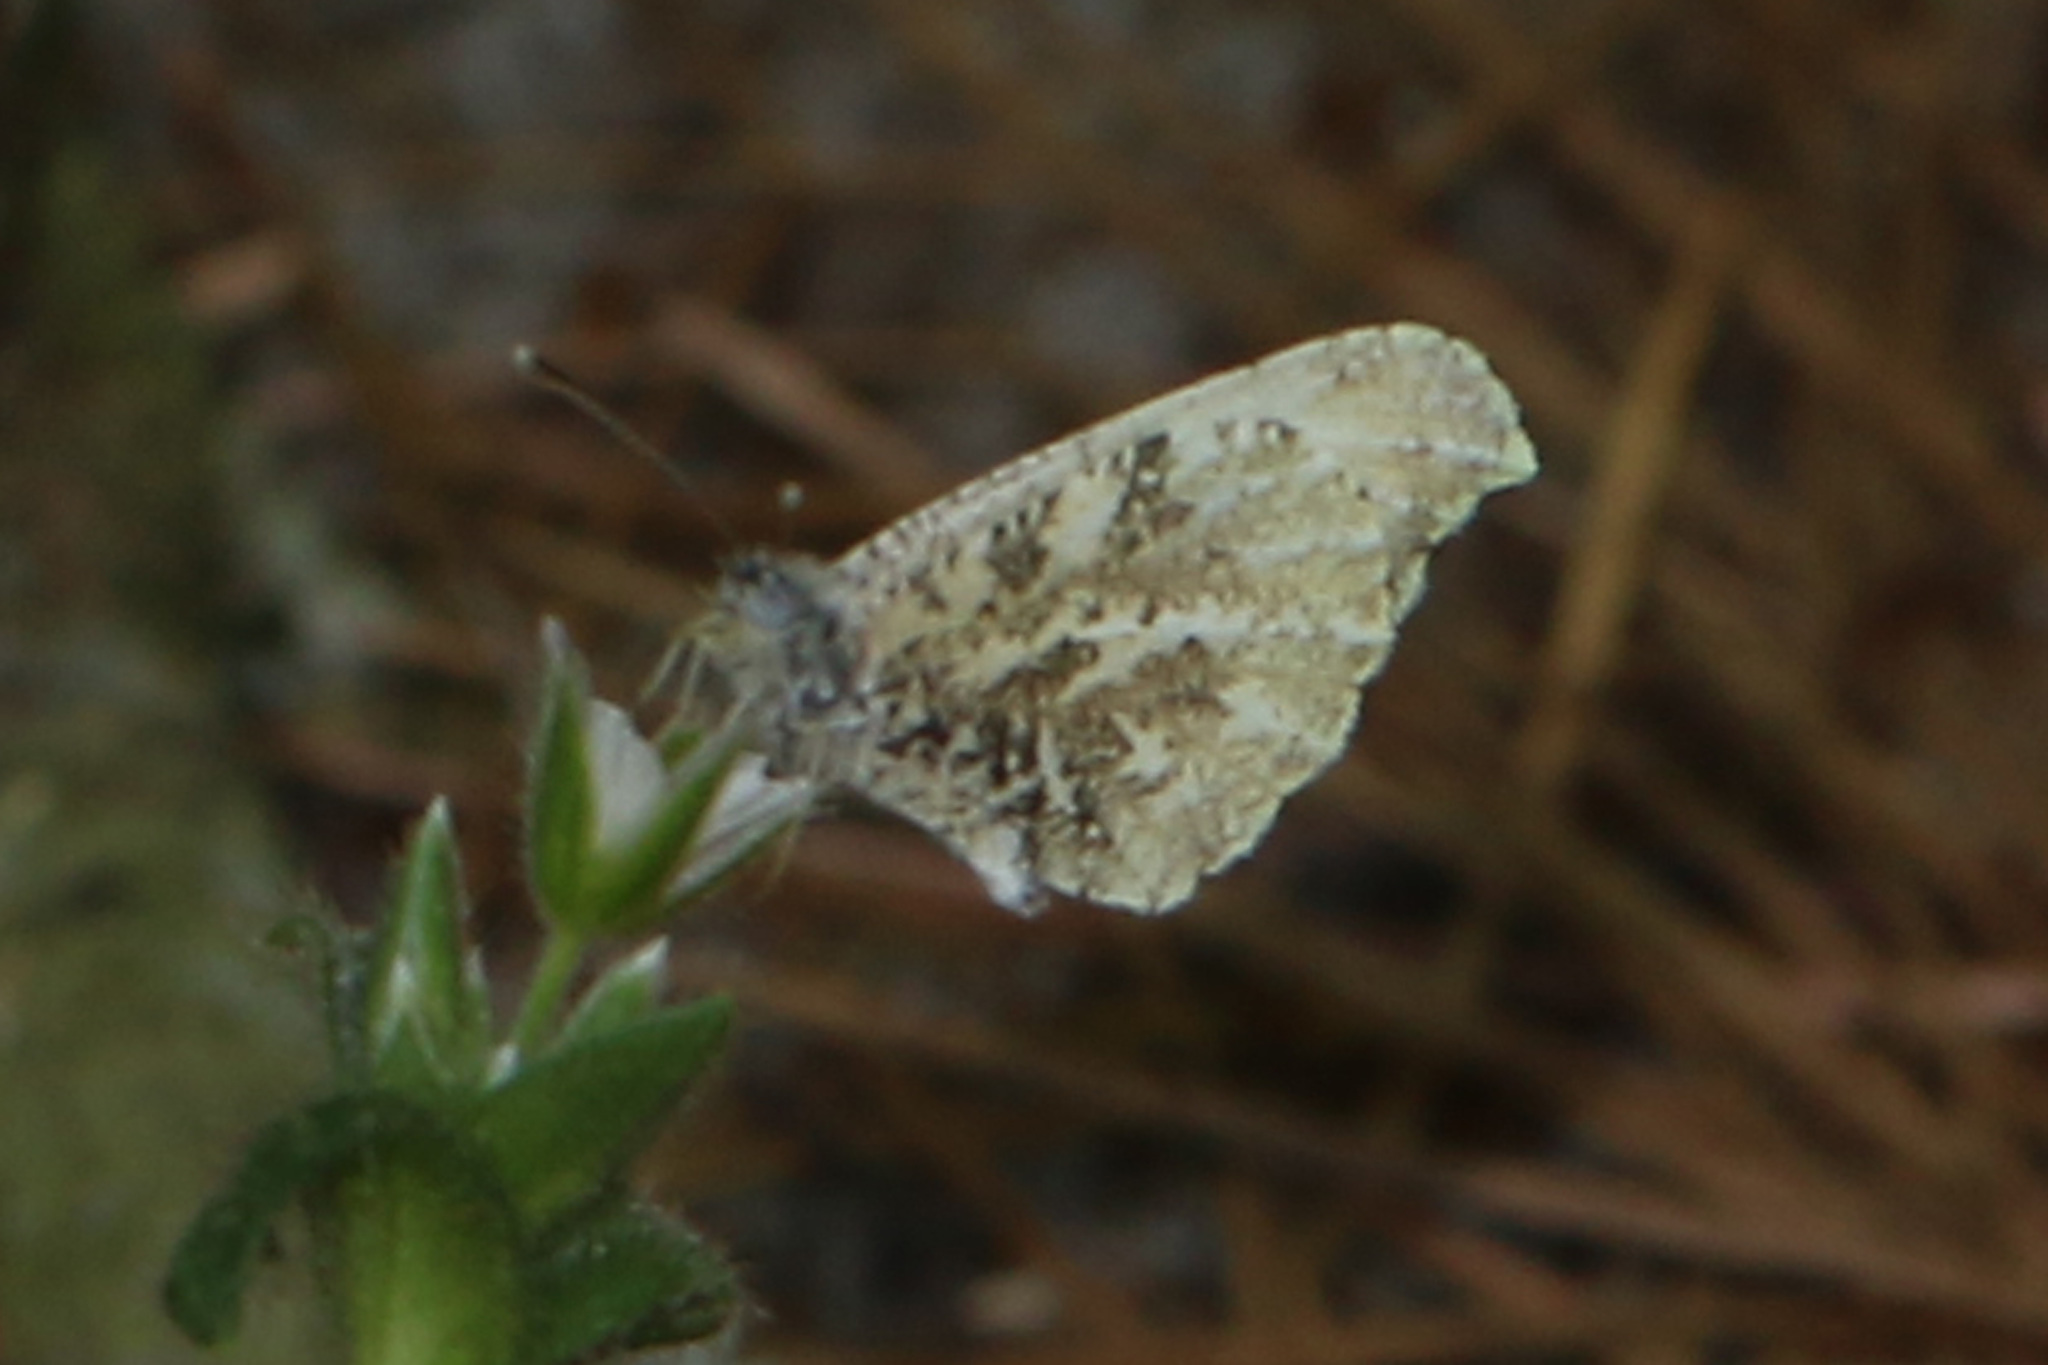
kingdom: Animalia
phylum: Arthropoda
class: Insecta
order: Lepidoptera
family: Pieridae
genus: Anthocharis
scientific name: Anthocharis midea
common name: Falcate orangetip
